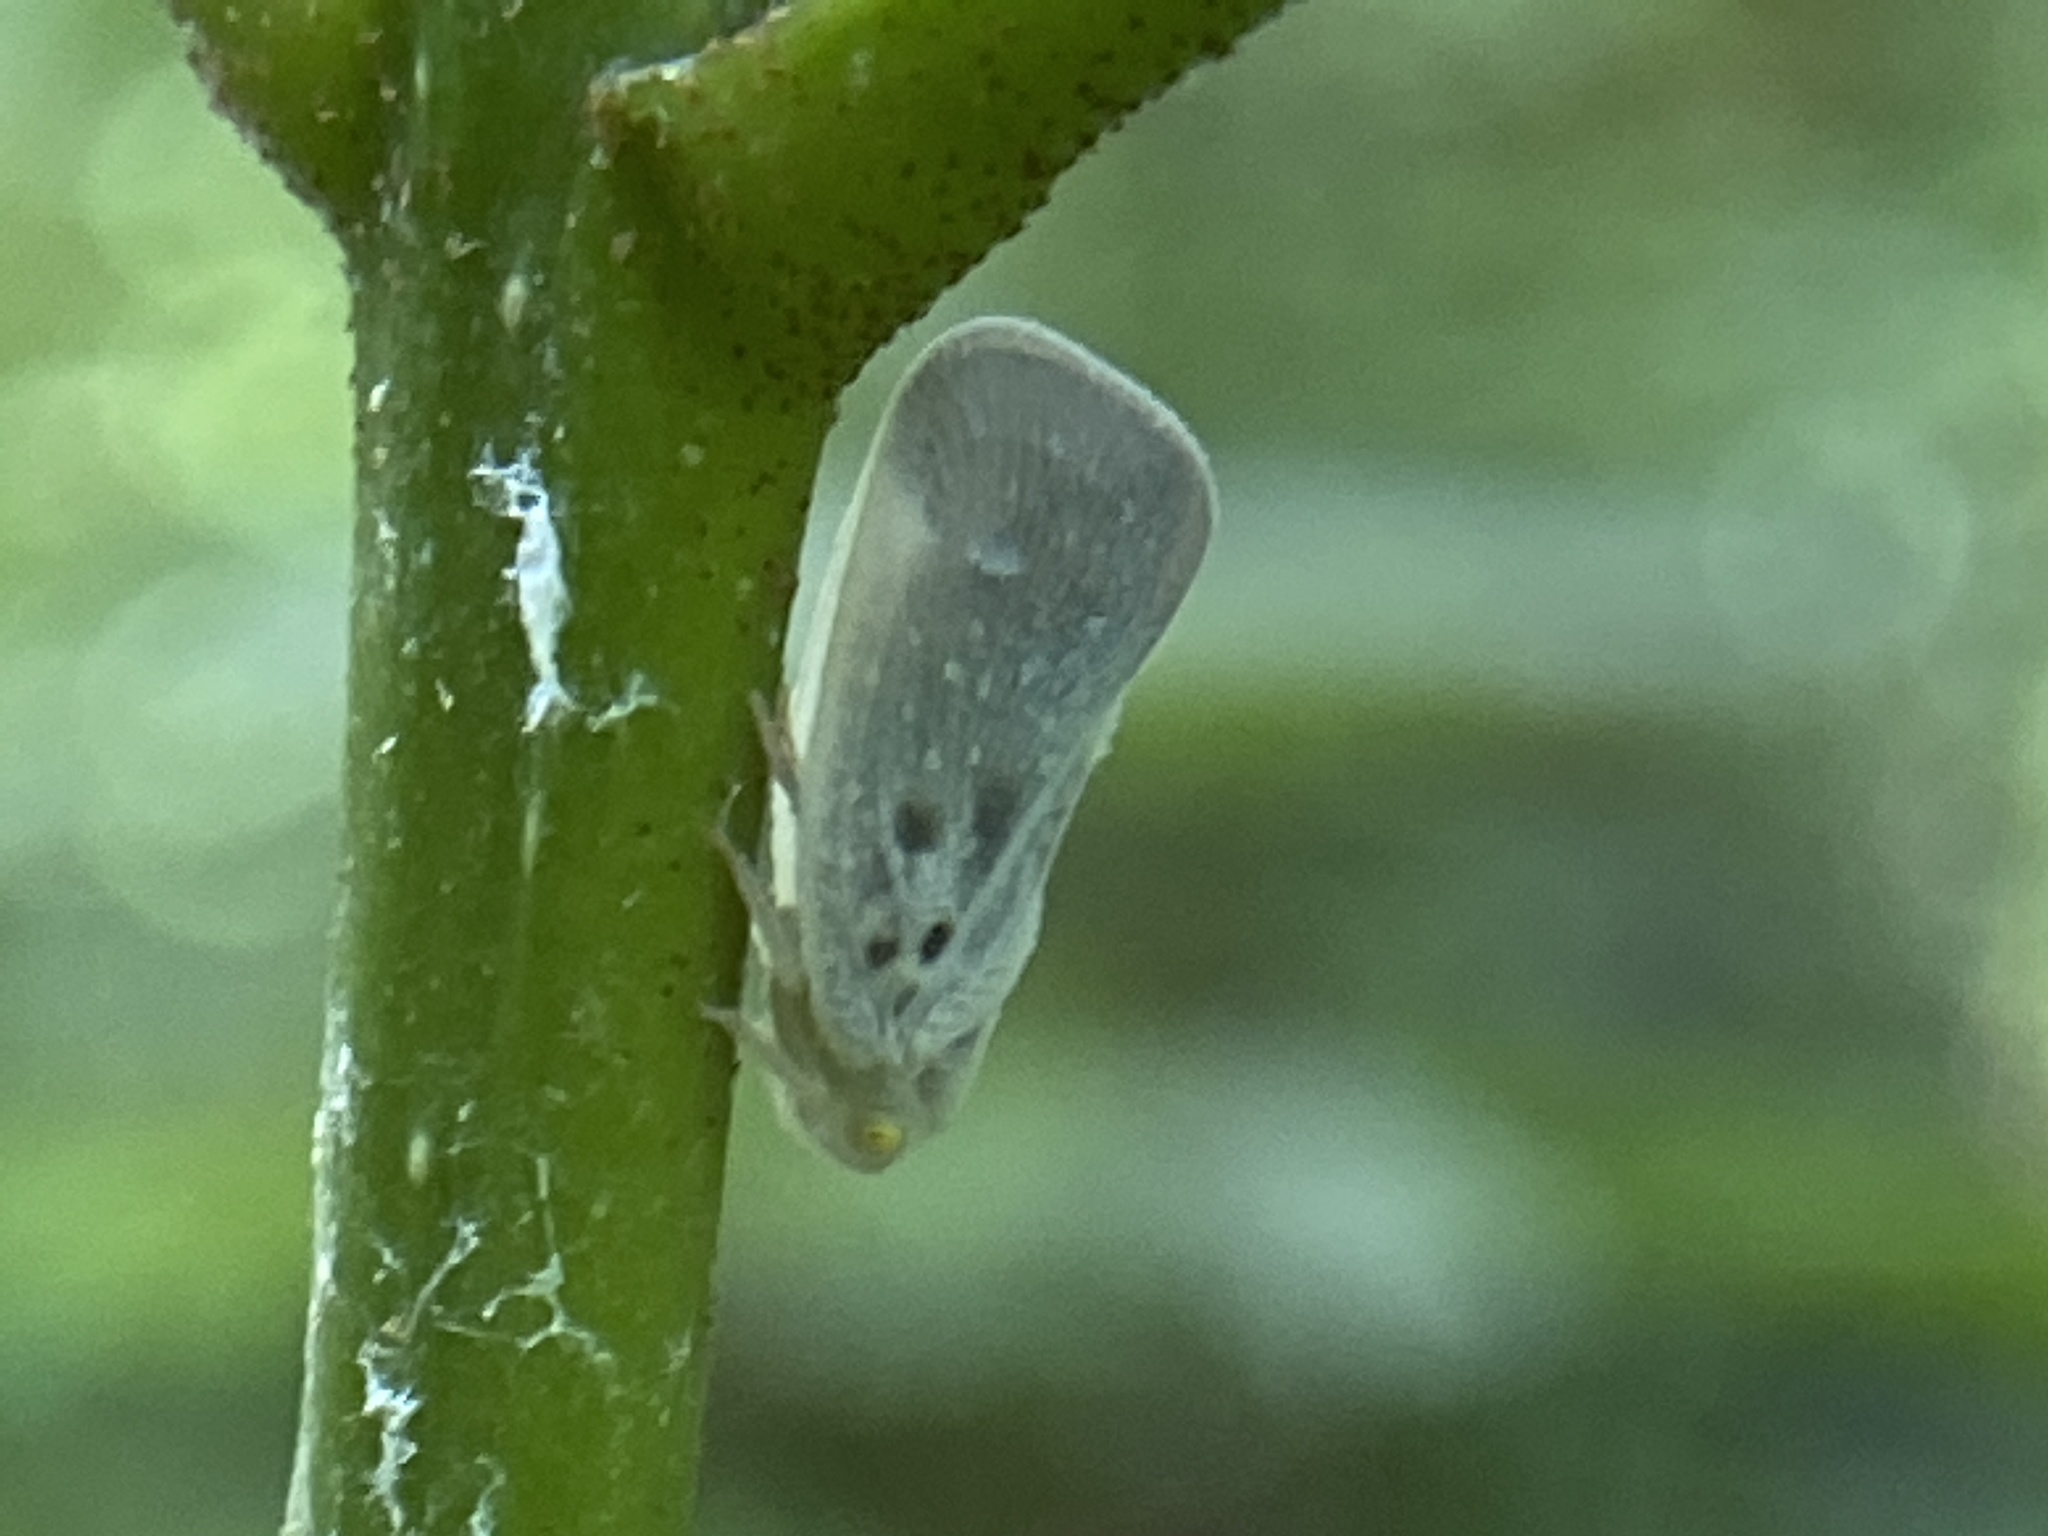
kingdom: Animalia
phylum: Arthropoda
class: Insecta
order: Hemiptera
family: Flatidae
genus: Metcalfa
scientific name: Metcalfa pruinosa
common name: Citrus flatid planthopper
